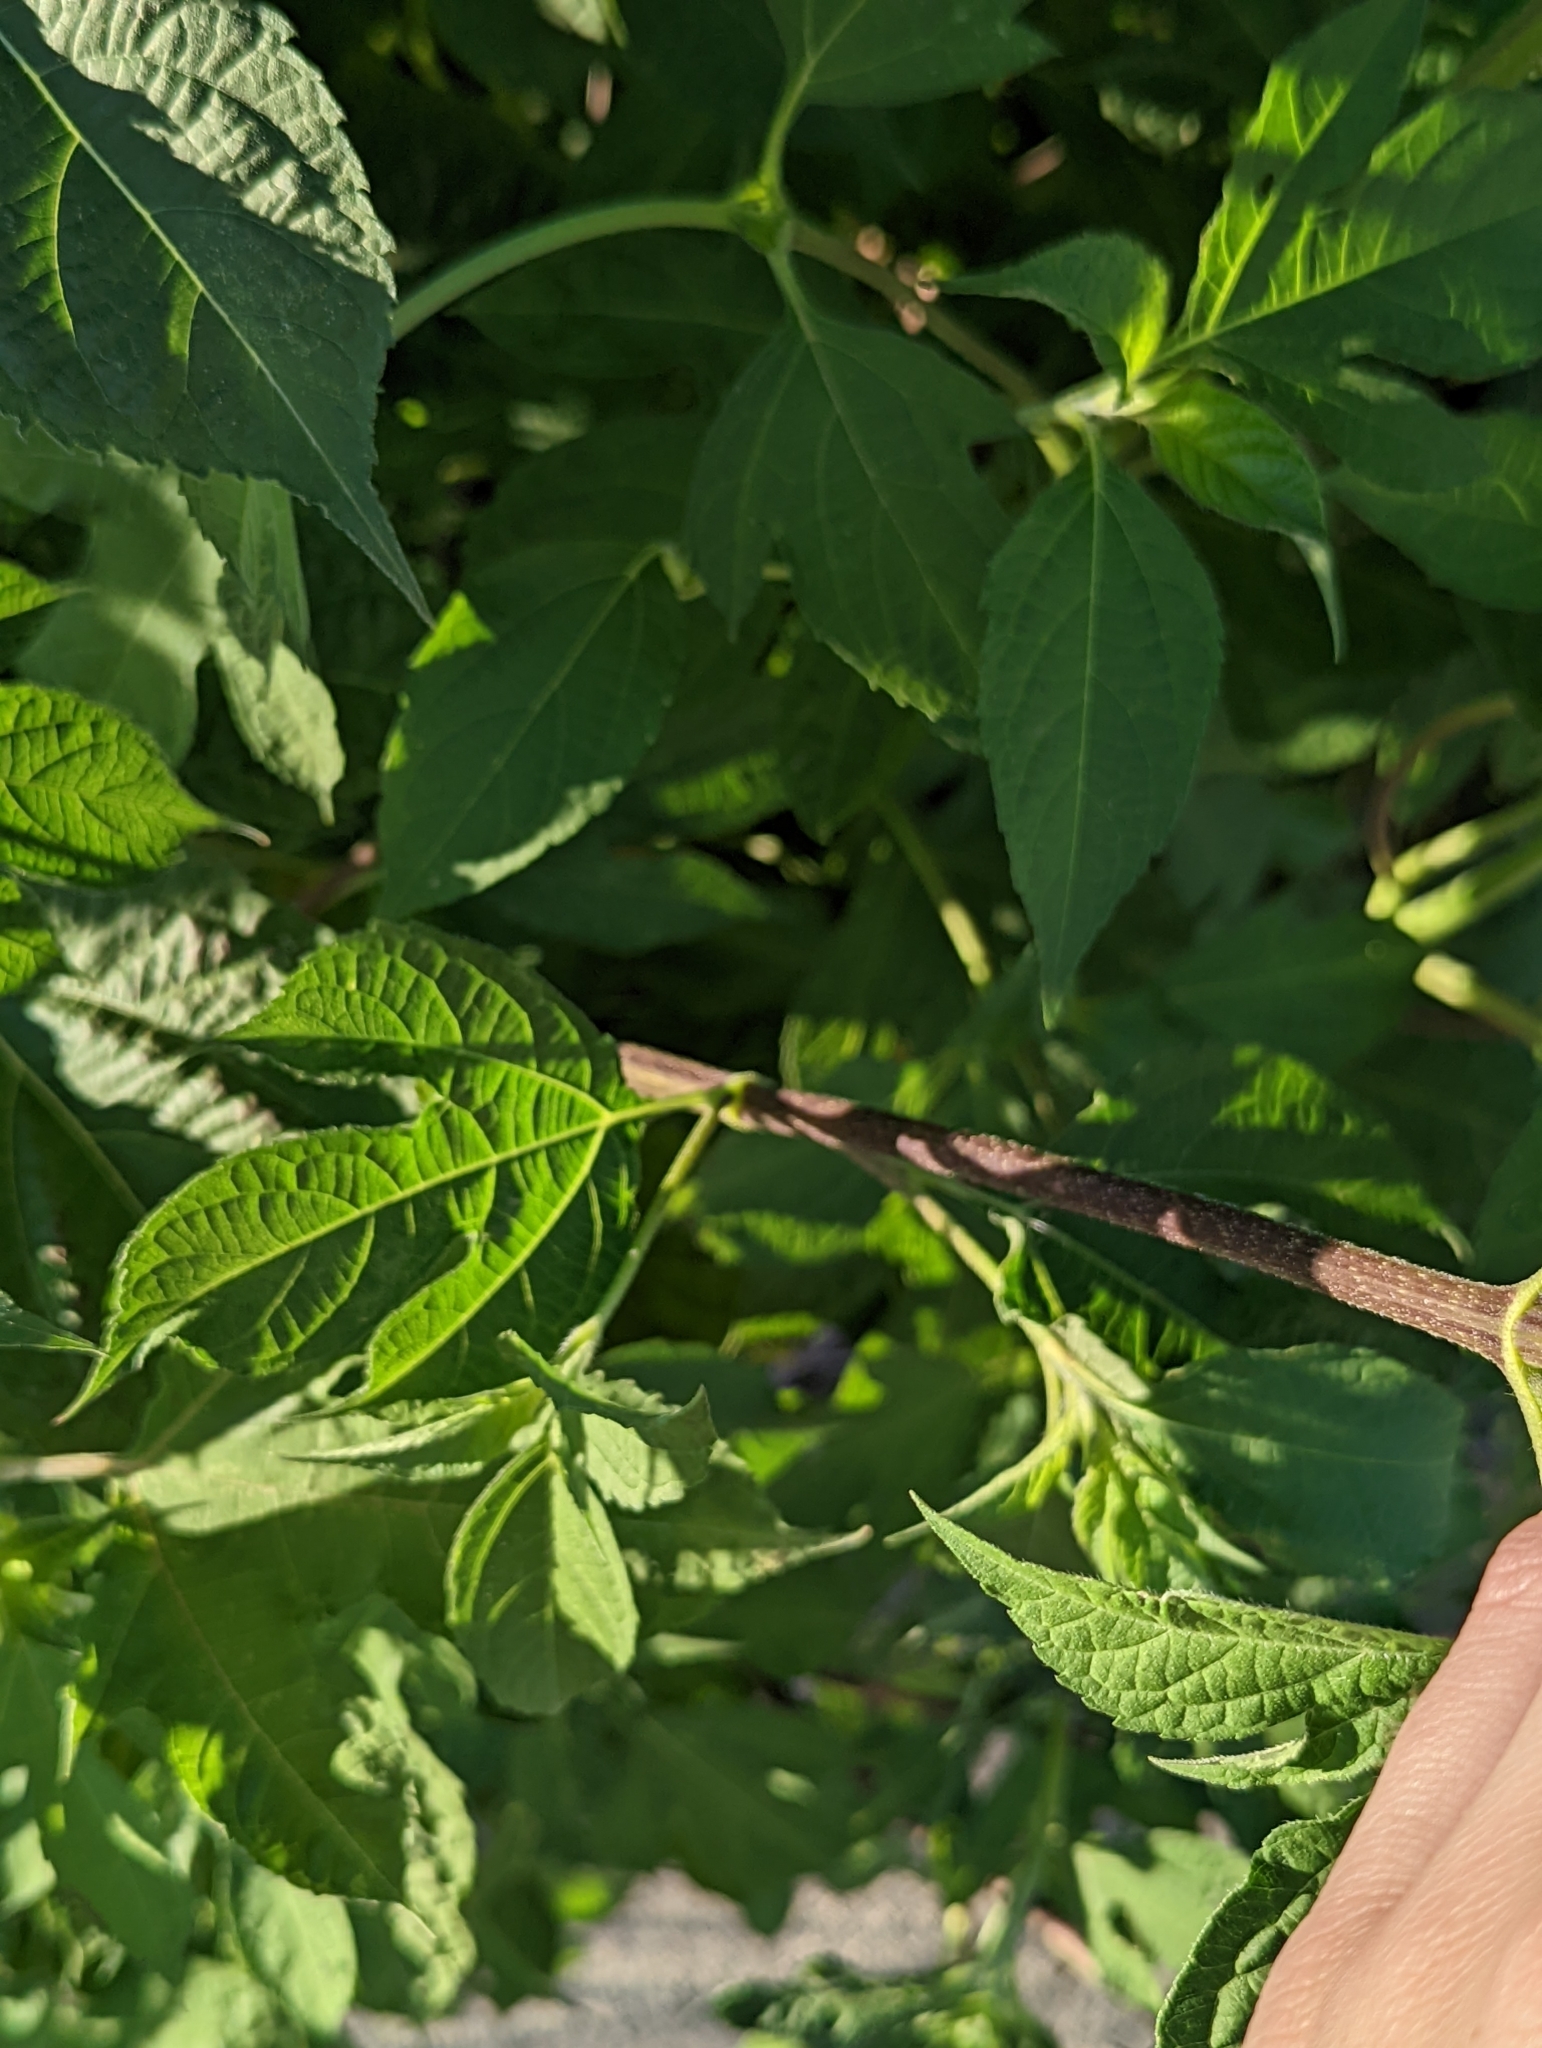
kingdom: Plantae
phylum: Tracheophyta
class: Magnoliopsida
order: Asterales
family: Asteraceae
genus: Ambrosia
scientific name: Ambrosia trifida
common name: Giant ragweed
